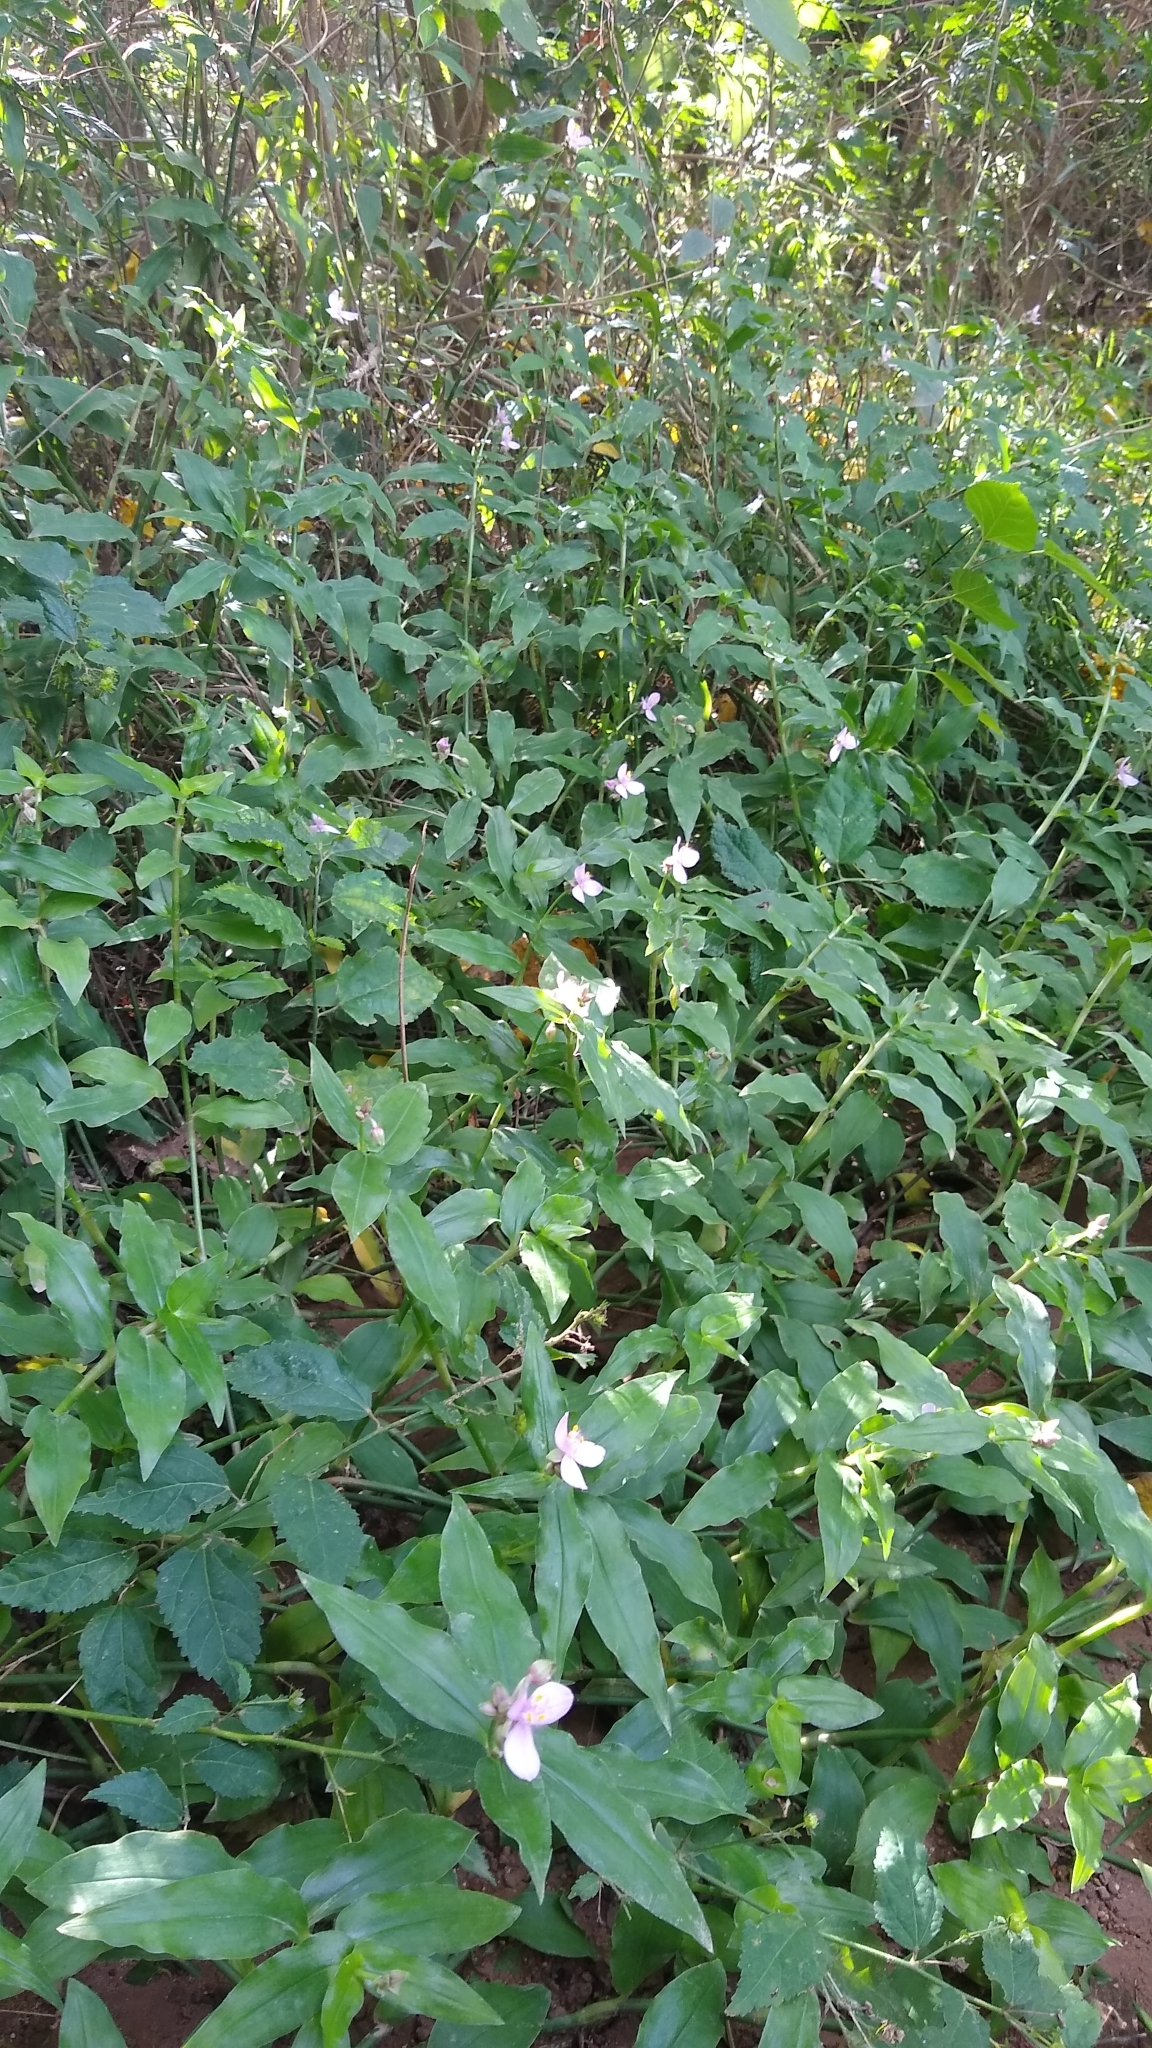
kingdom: Plantae
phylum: Tracheophyta
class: Liliopsida
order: Commelinales
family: Commelinaceae
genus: Callisia
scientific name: Callisia diuretica
